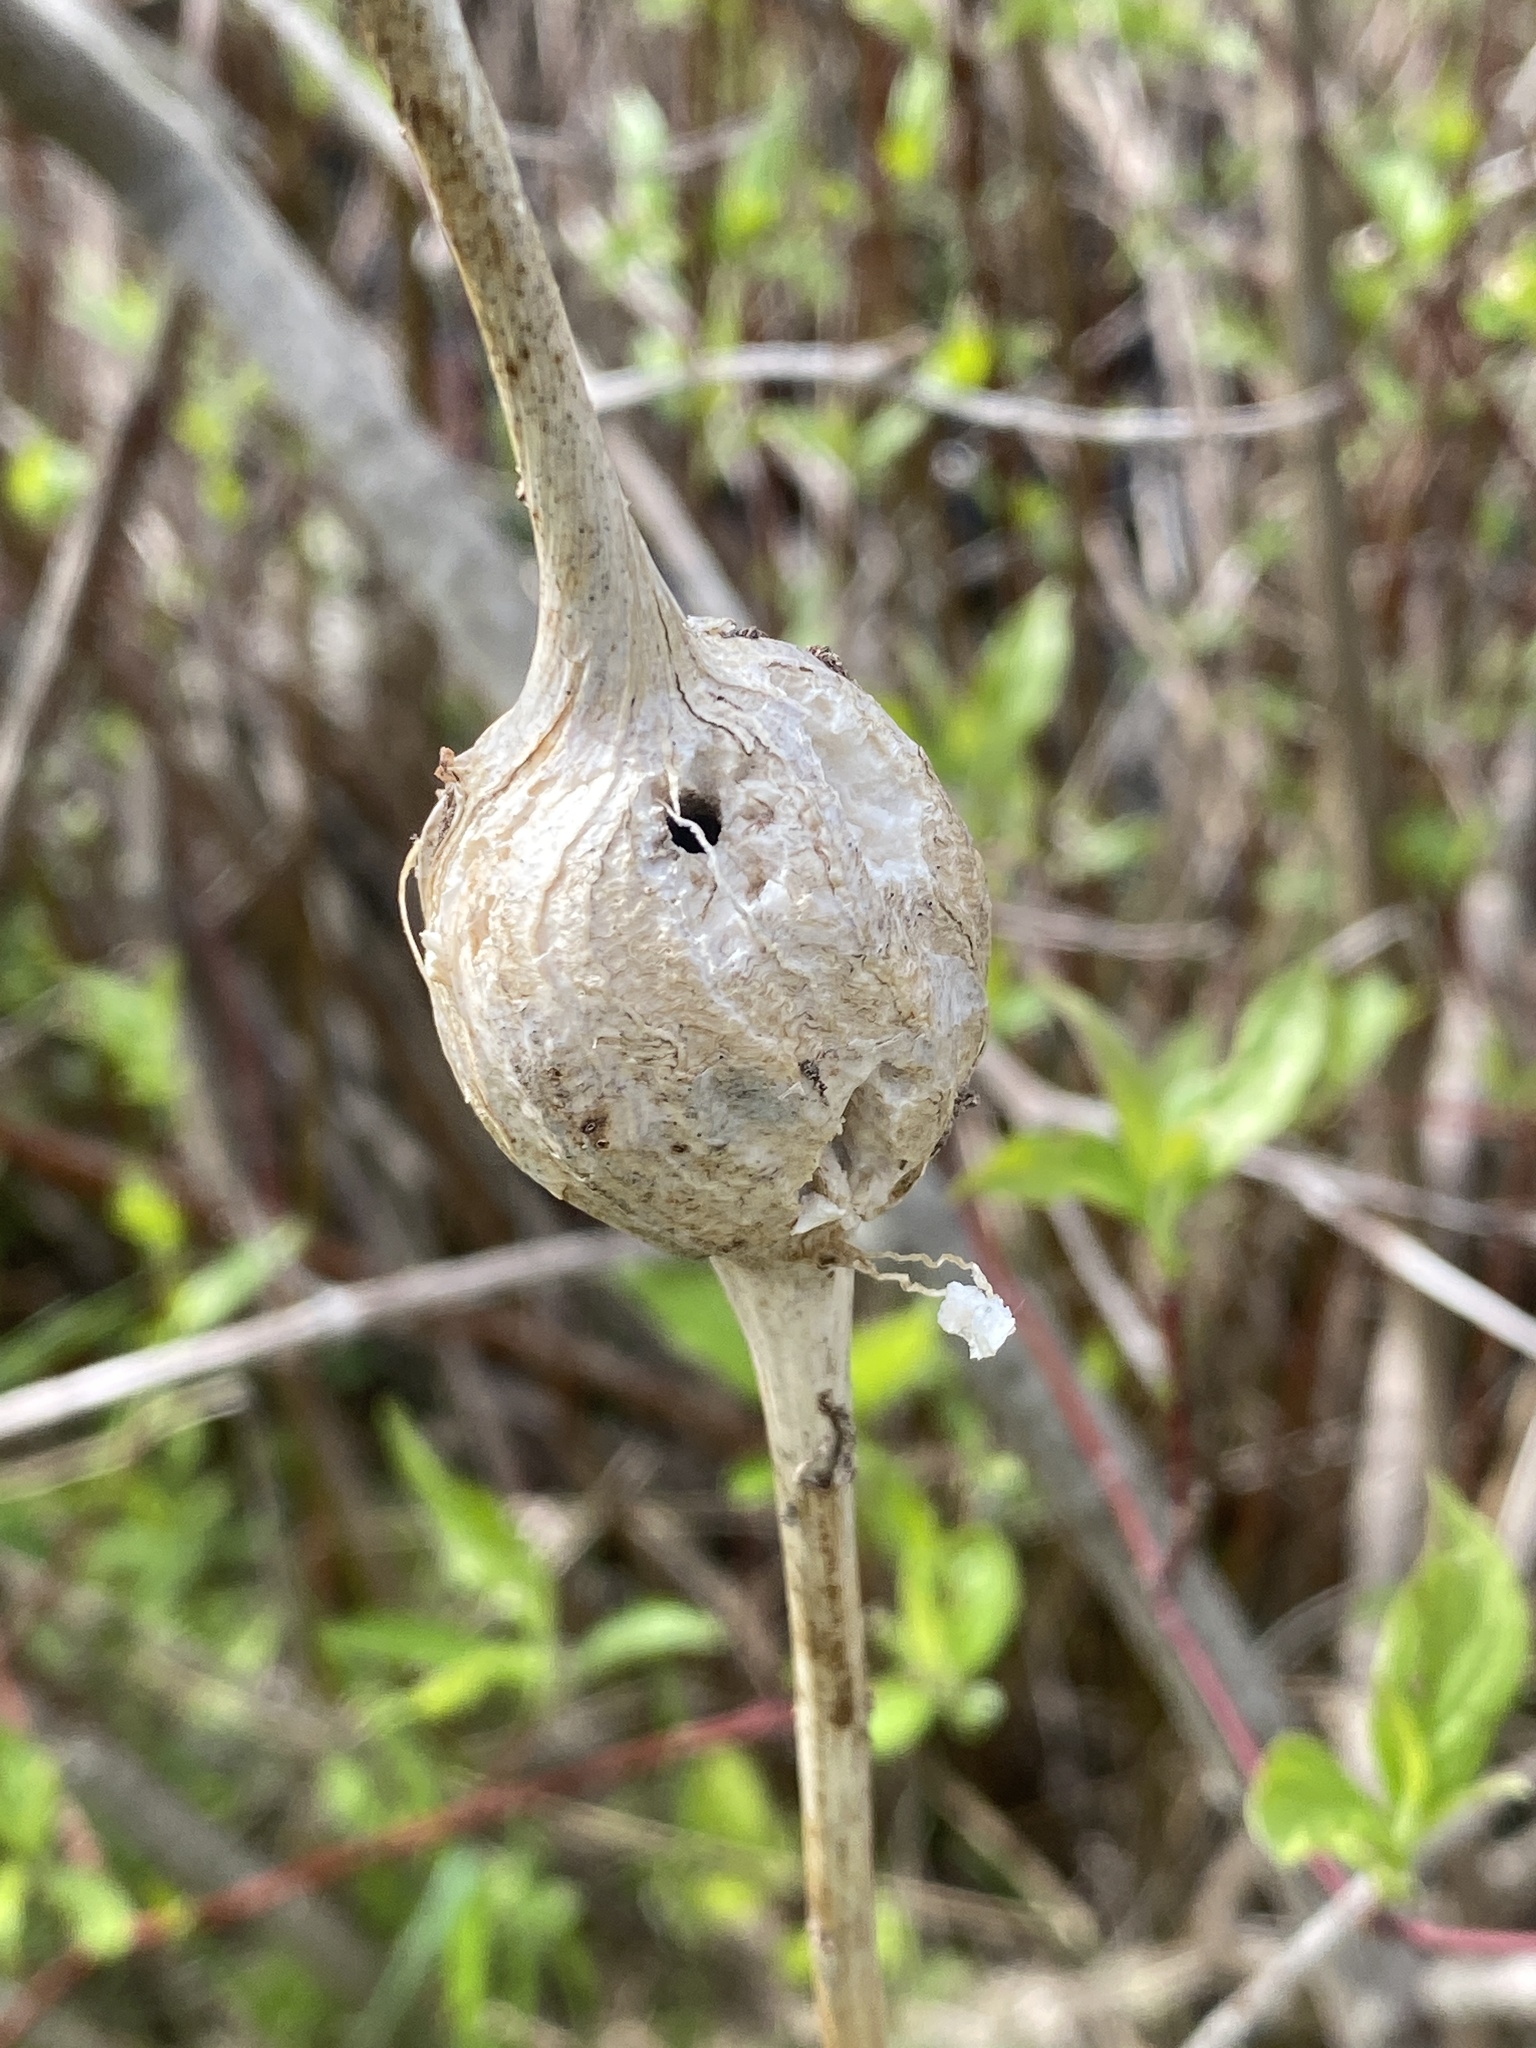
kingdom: Animalia
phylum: Arthropoda
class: Insecta
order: Diptera
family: Tephritidae
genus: Eurosta
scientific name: Eurosta solidaginis
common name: Goldenrod gall fly
